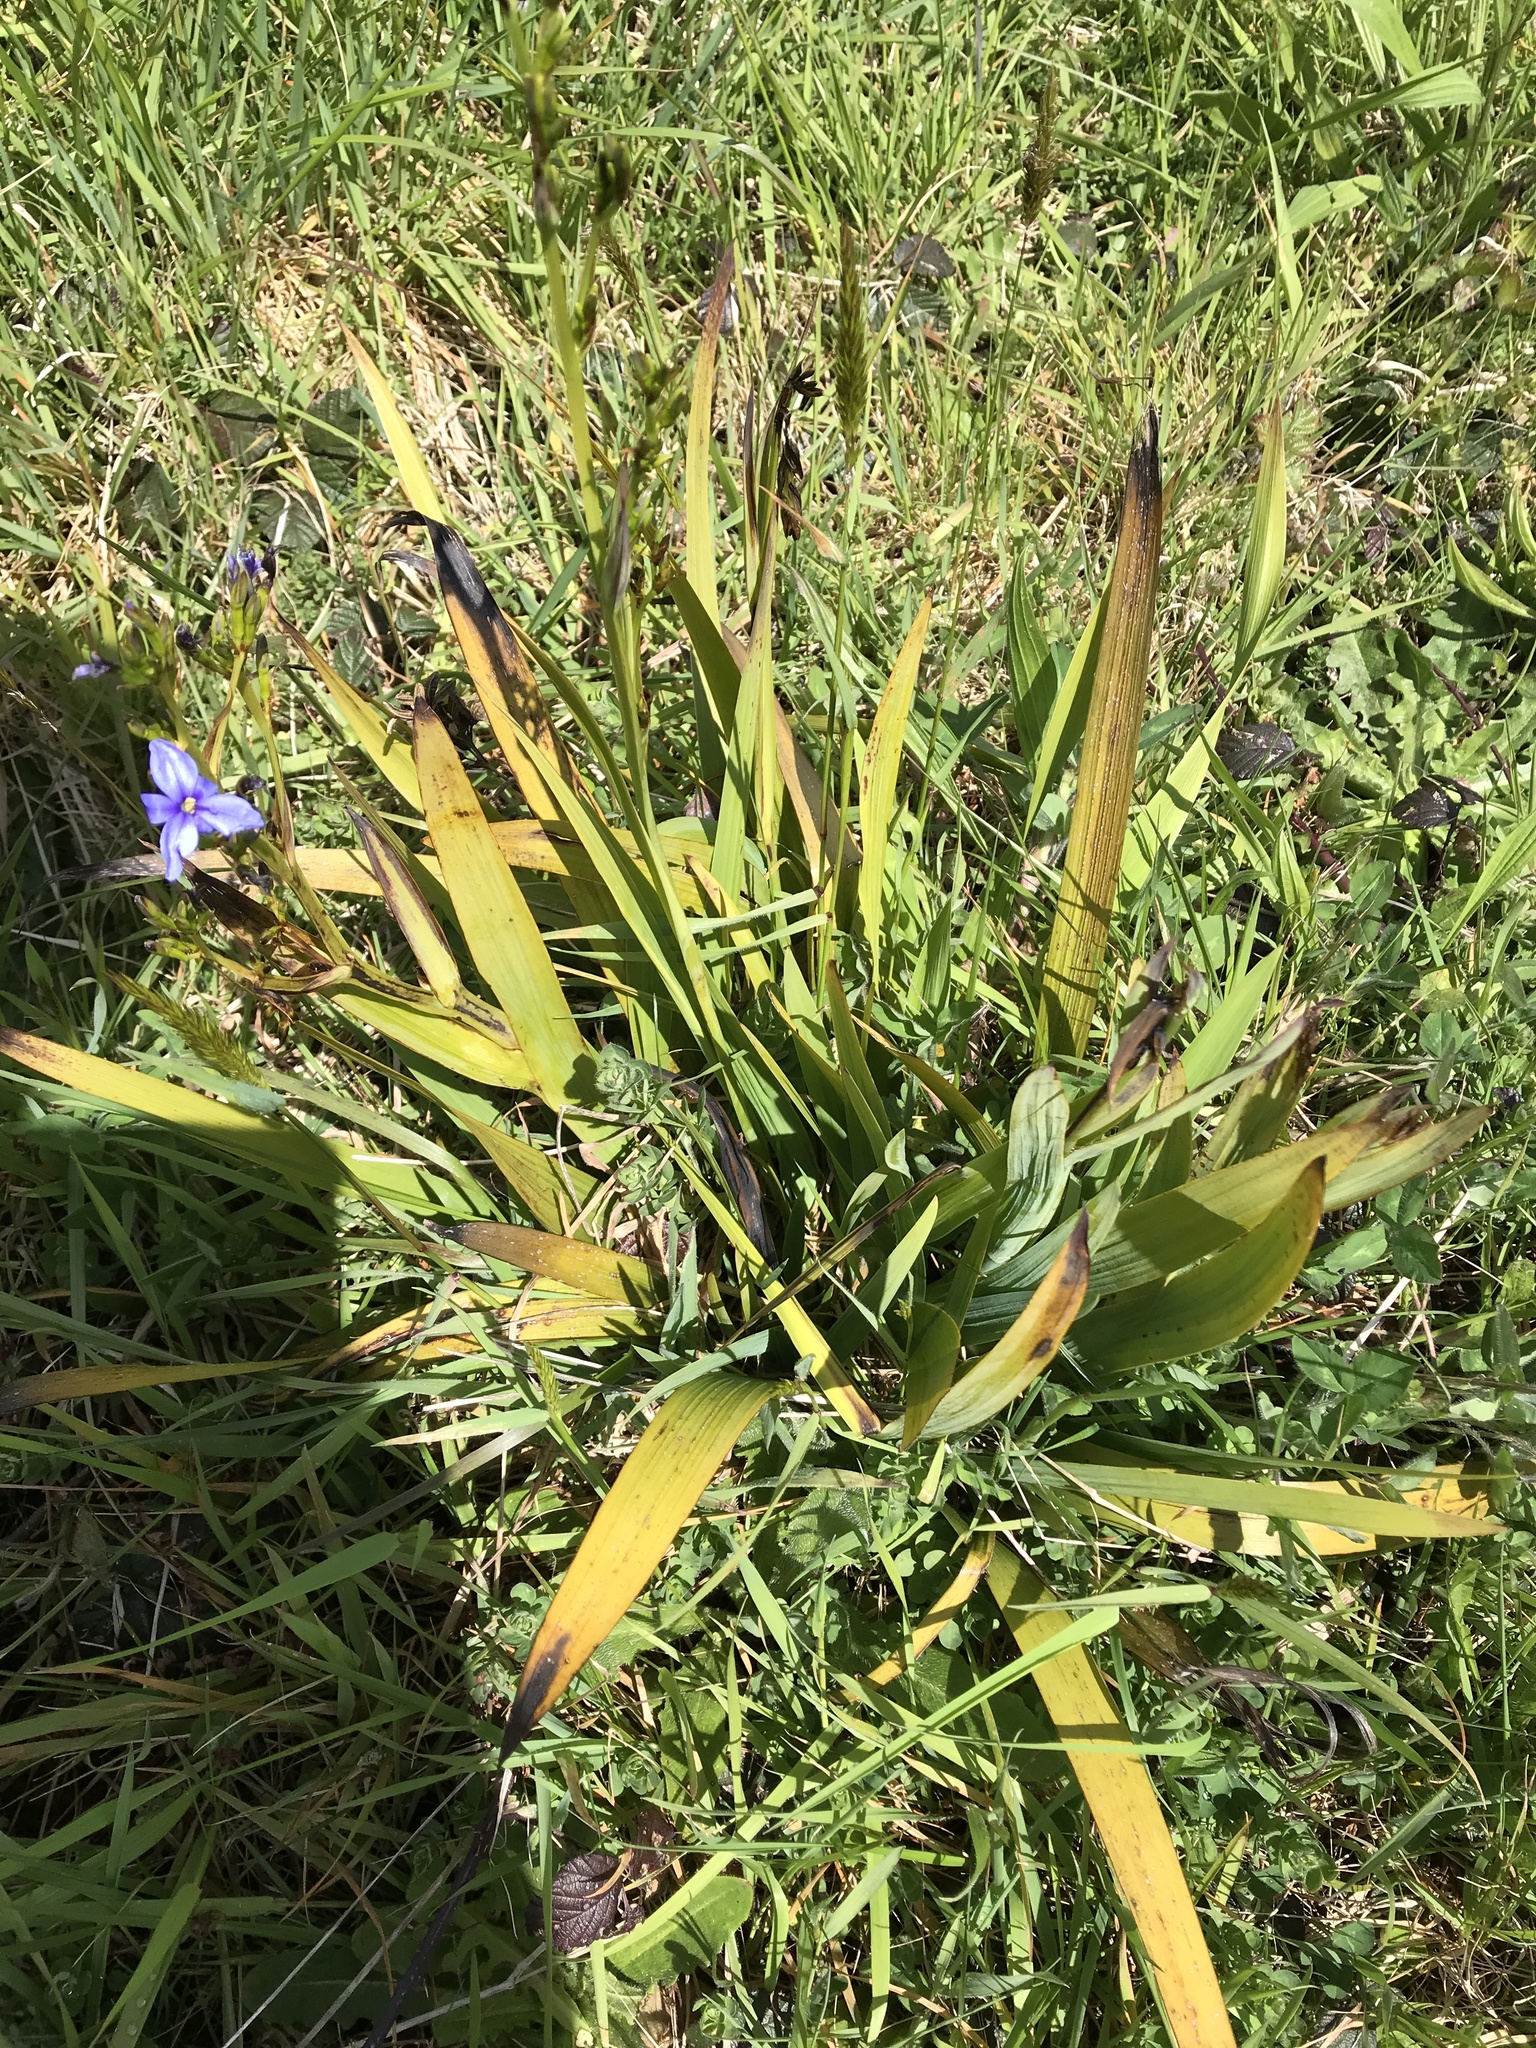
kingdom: Plantae
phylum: Tracheophyta
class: Liliopsida
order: Asparagales
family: Iridaceae
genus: Aristea
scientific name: Aristea ecklonii
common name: Blue corn-lily
